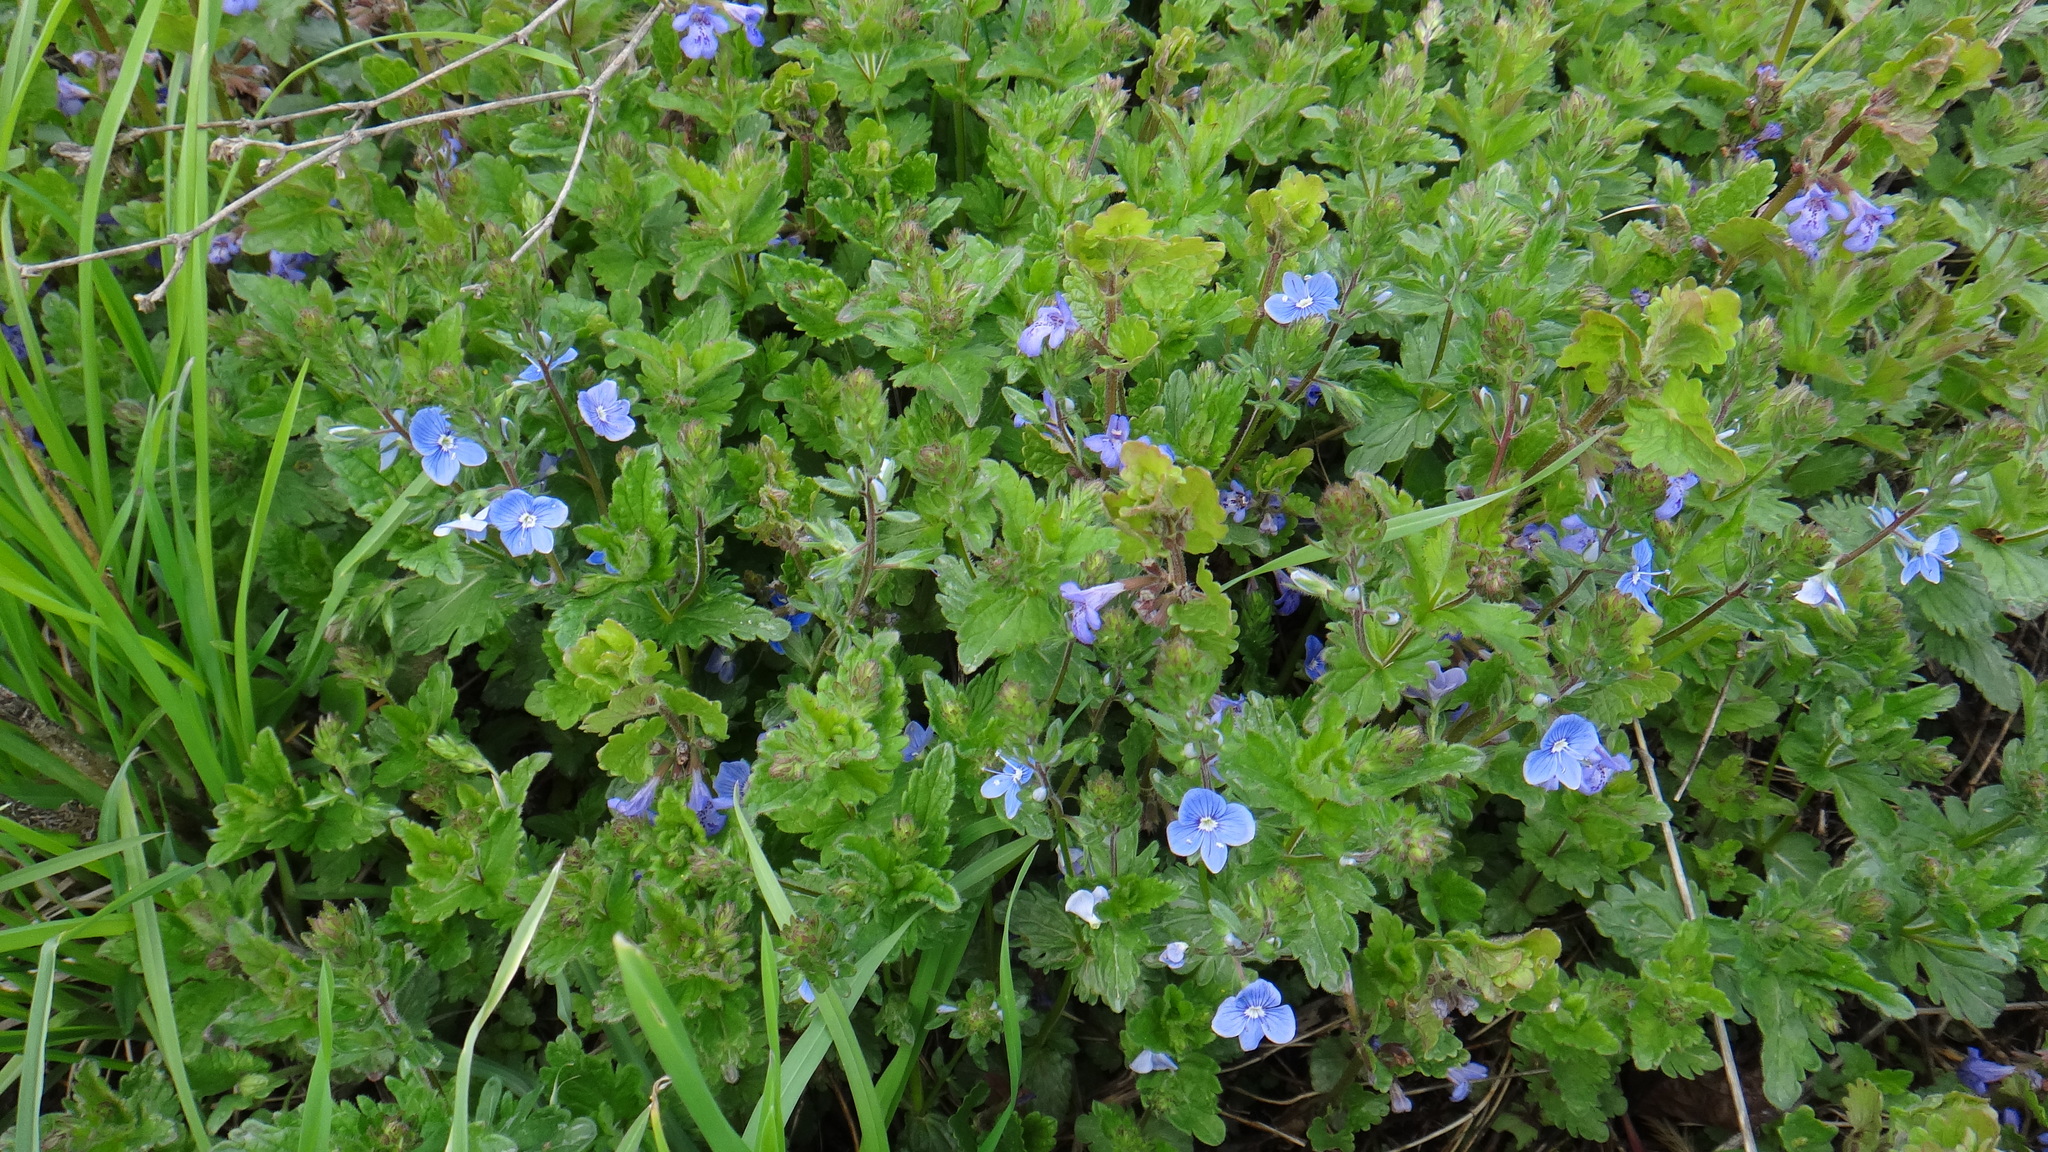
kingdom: Plantae
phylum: Tracheophyta
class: Magnoliopsida
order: Lamiales
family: Plantaginaceae
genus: Veronica
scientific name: Veronica chamaedrys
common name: Germander speedwell
